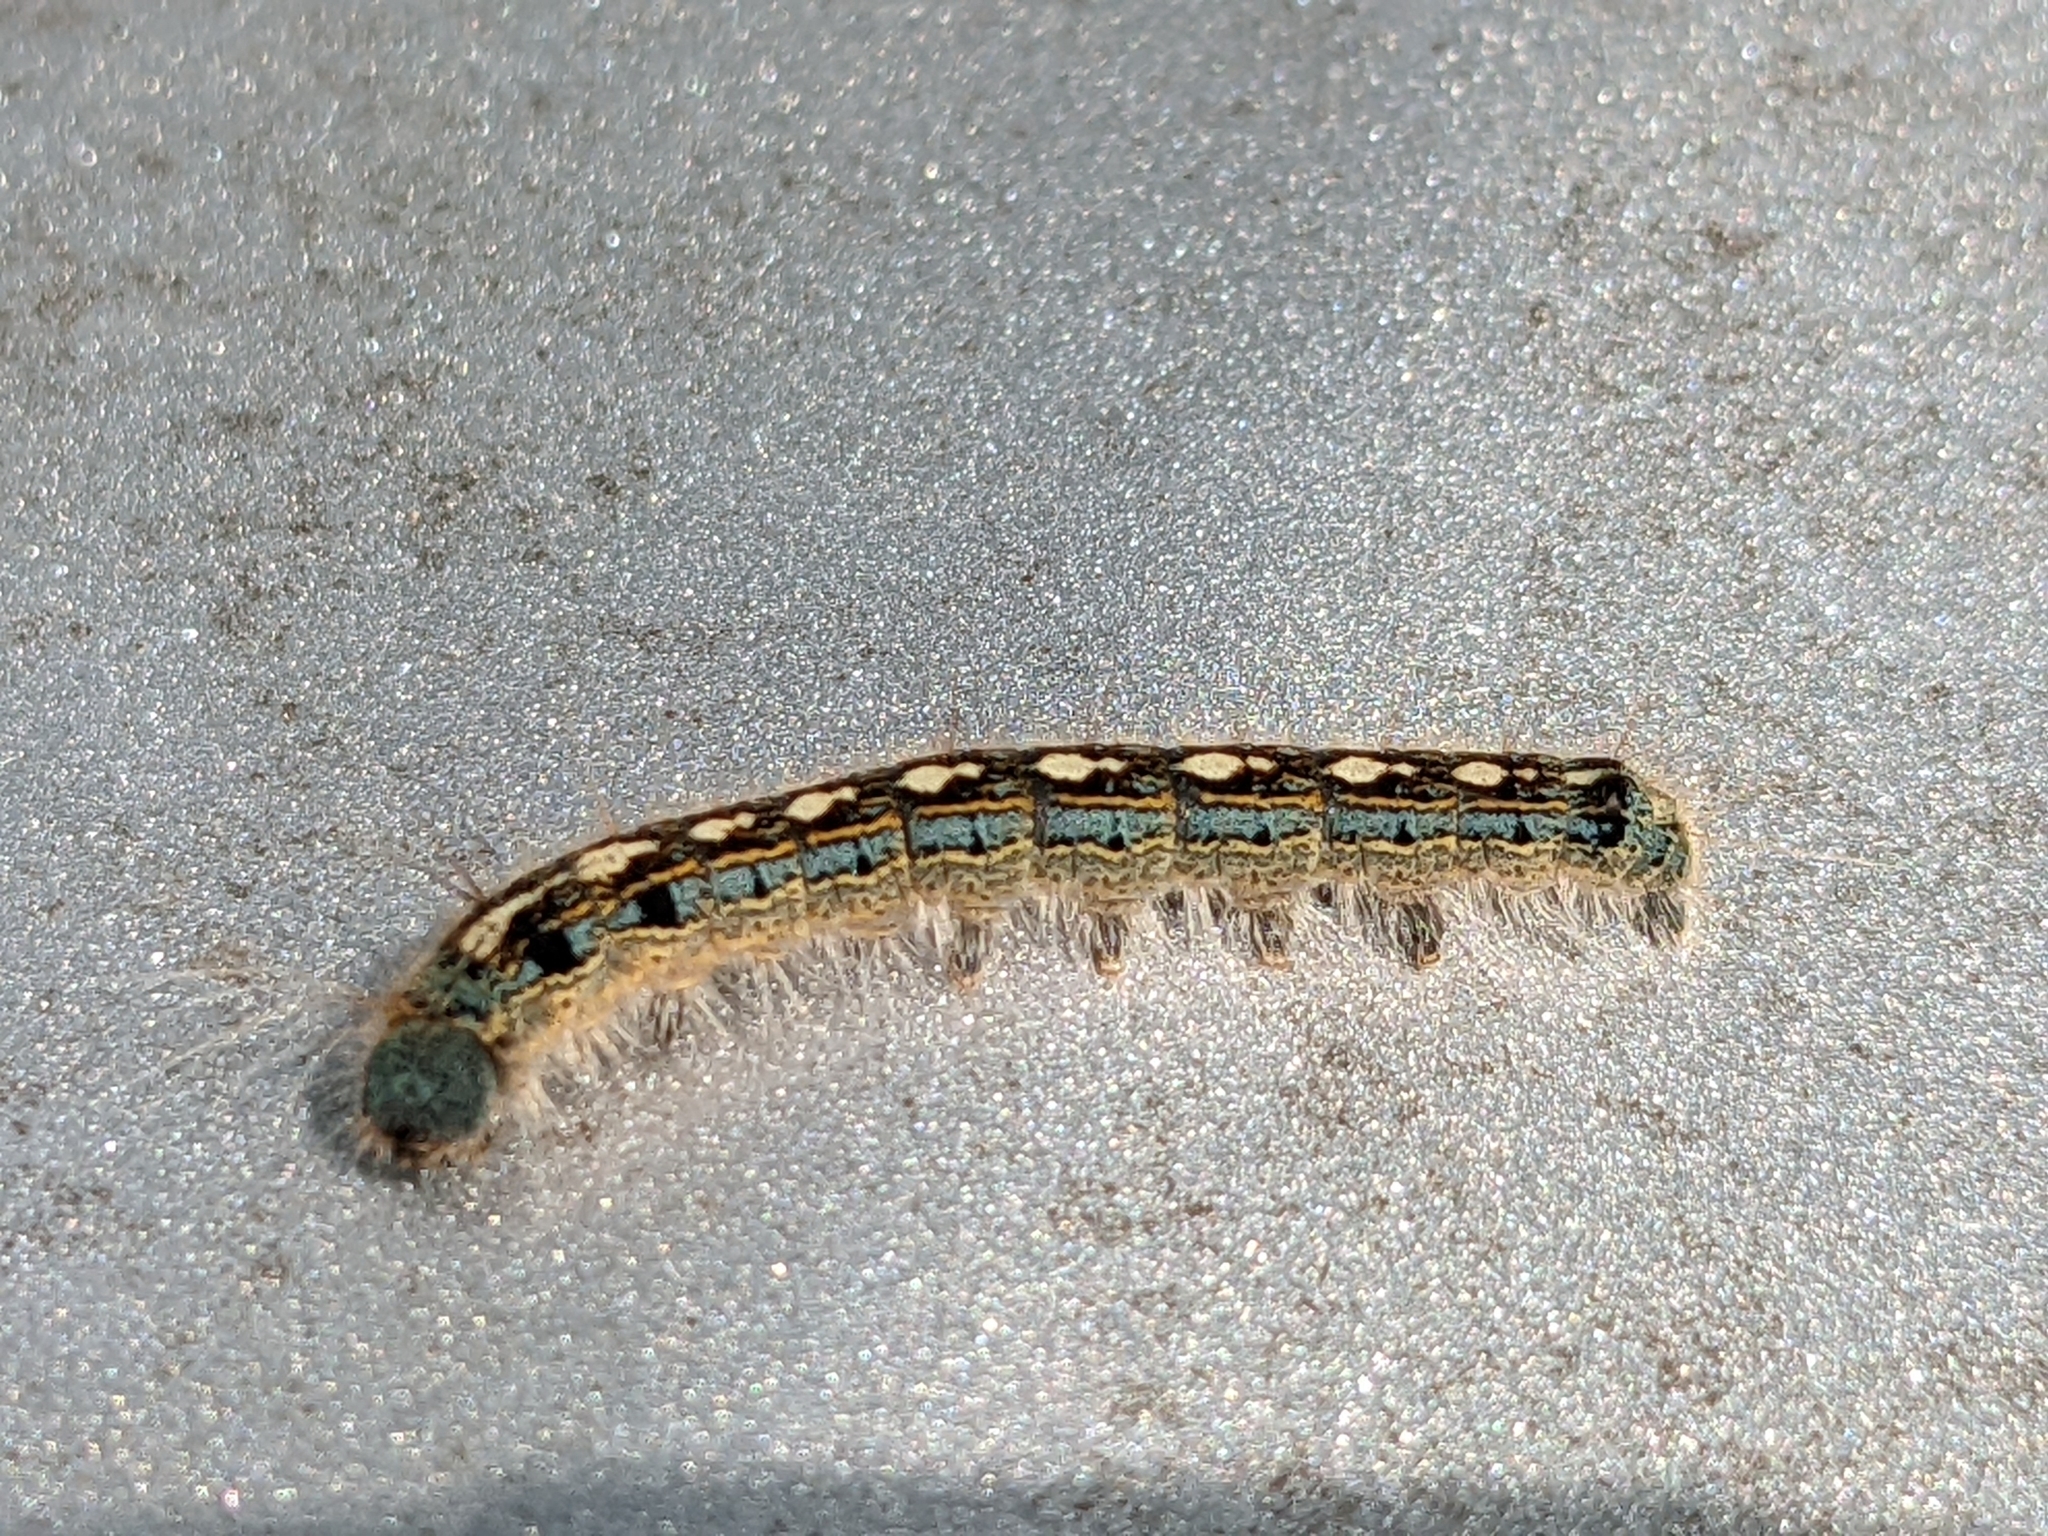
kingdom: Animalia
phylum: Arthropoda
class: Insecta
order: Lepidoptera
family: Lasiocampidae
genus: Malacosoma
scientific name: Malacosoma disstria
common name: Forest tent caterpillar
